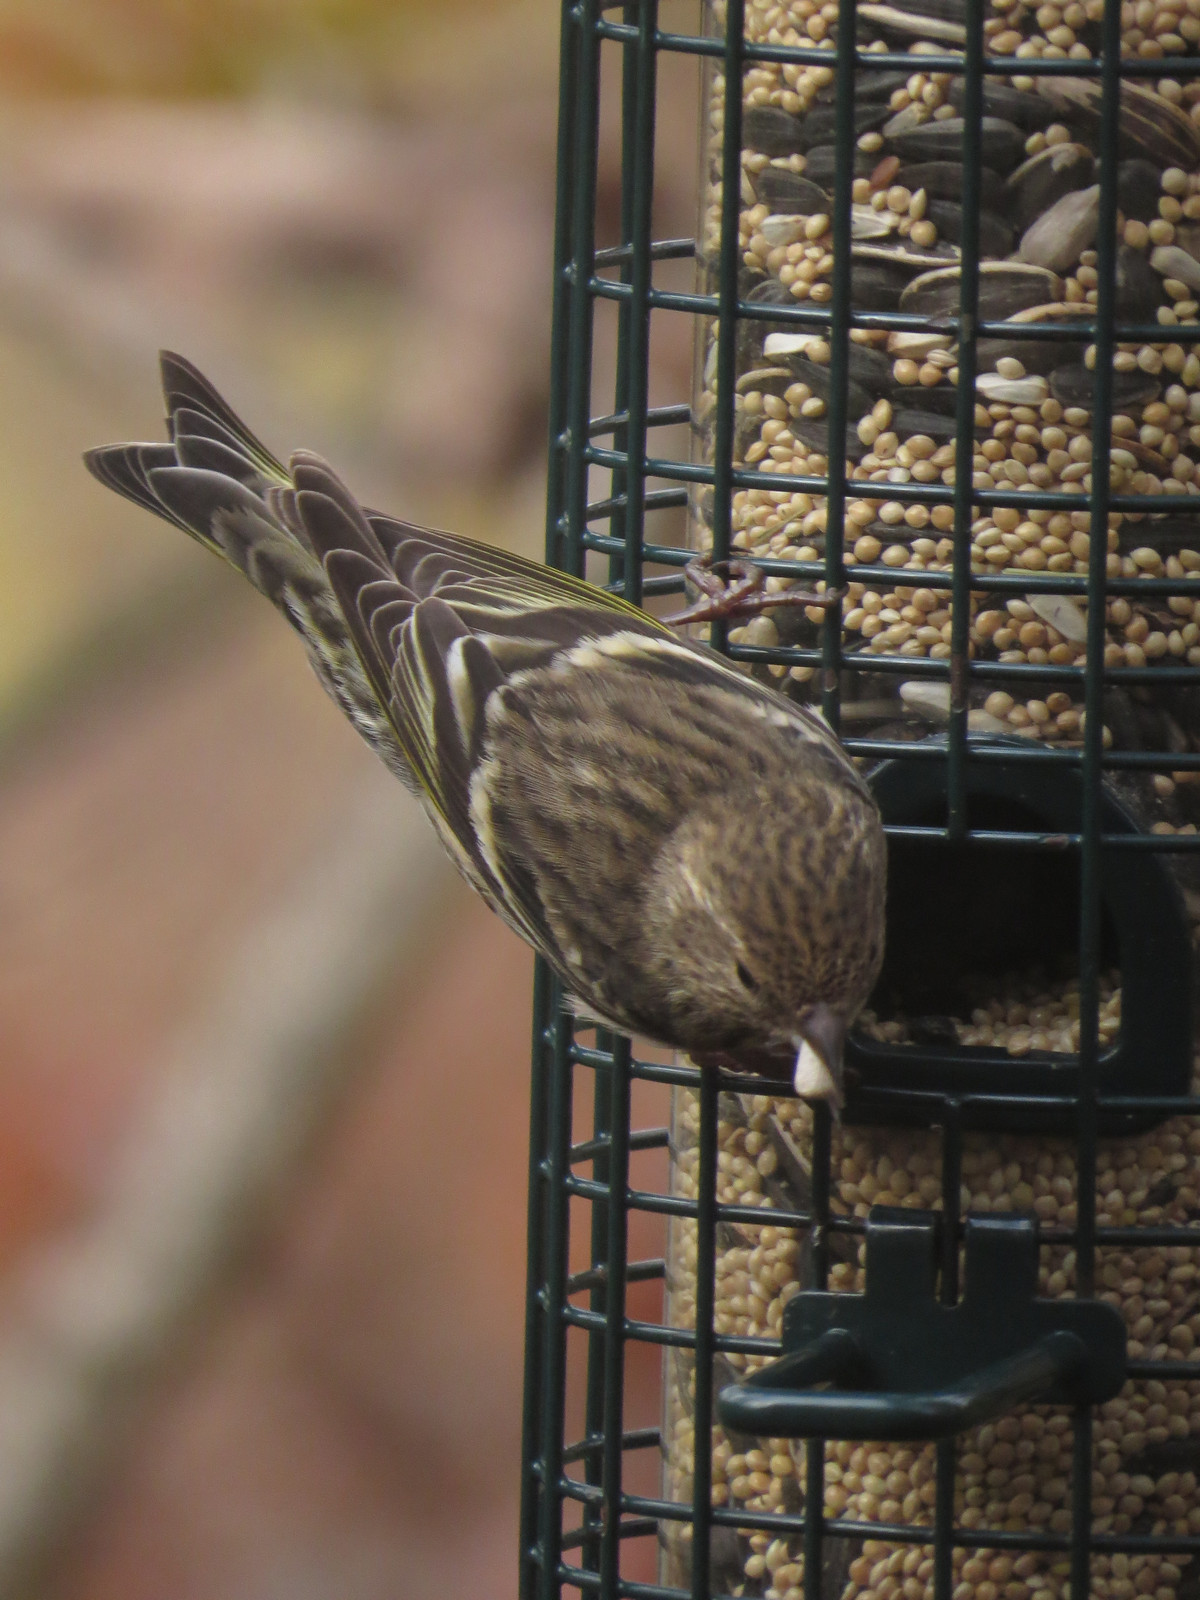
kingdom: Animalia
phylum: Chordata
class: Aves
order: Passeriformes
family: Fringillidae
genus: Spinus
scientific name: Spinus pinus
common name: Pine siskin
